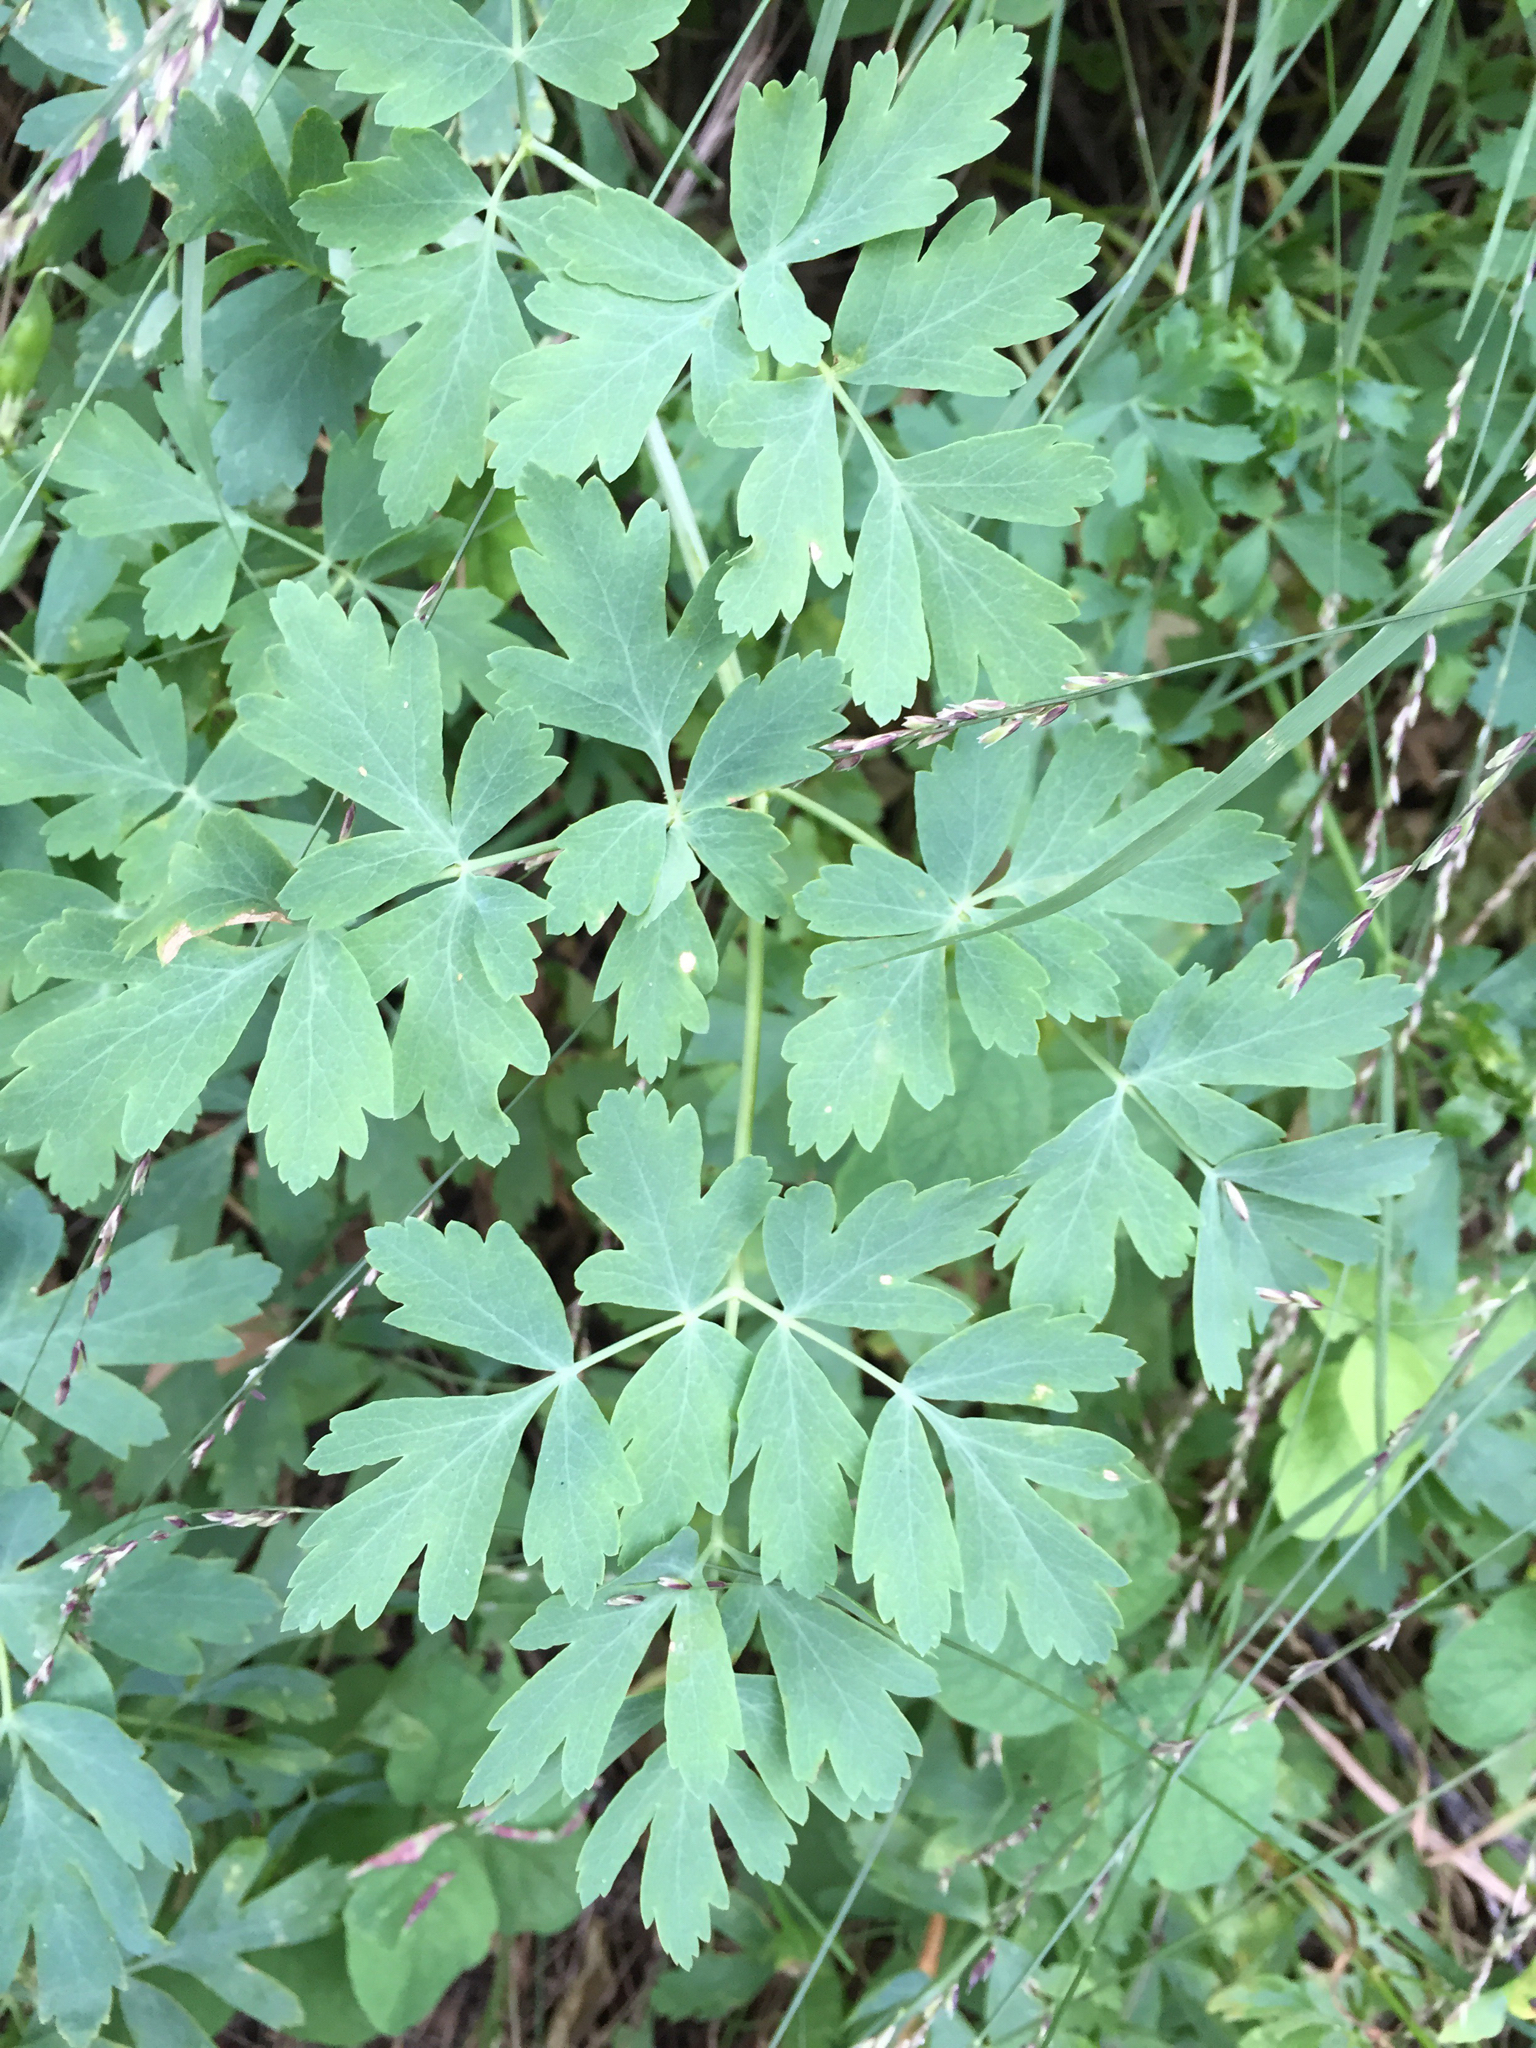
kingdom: Plantae
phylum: Tracheophyta
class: Magnoliopsida
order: Apiales
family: Apiaceae
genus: Lomatium
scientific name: Lomatium californicum
